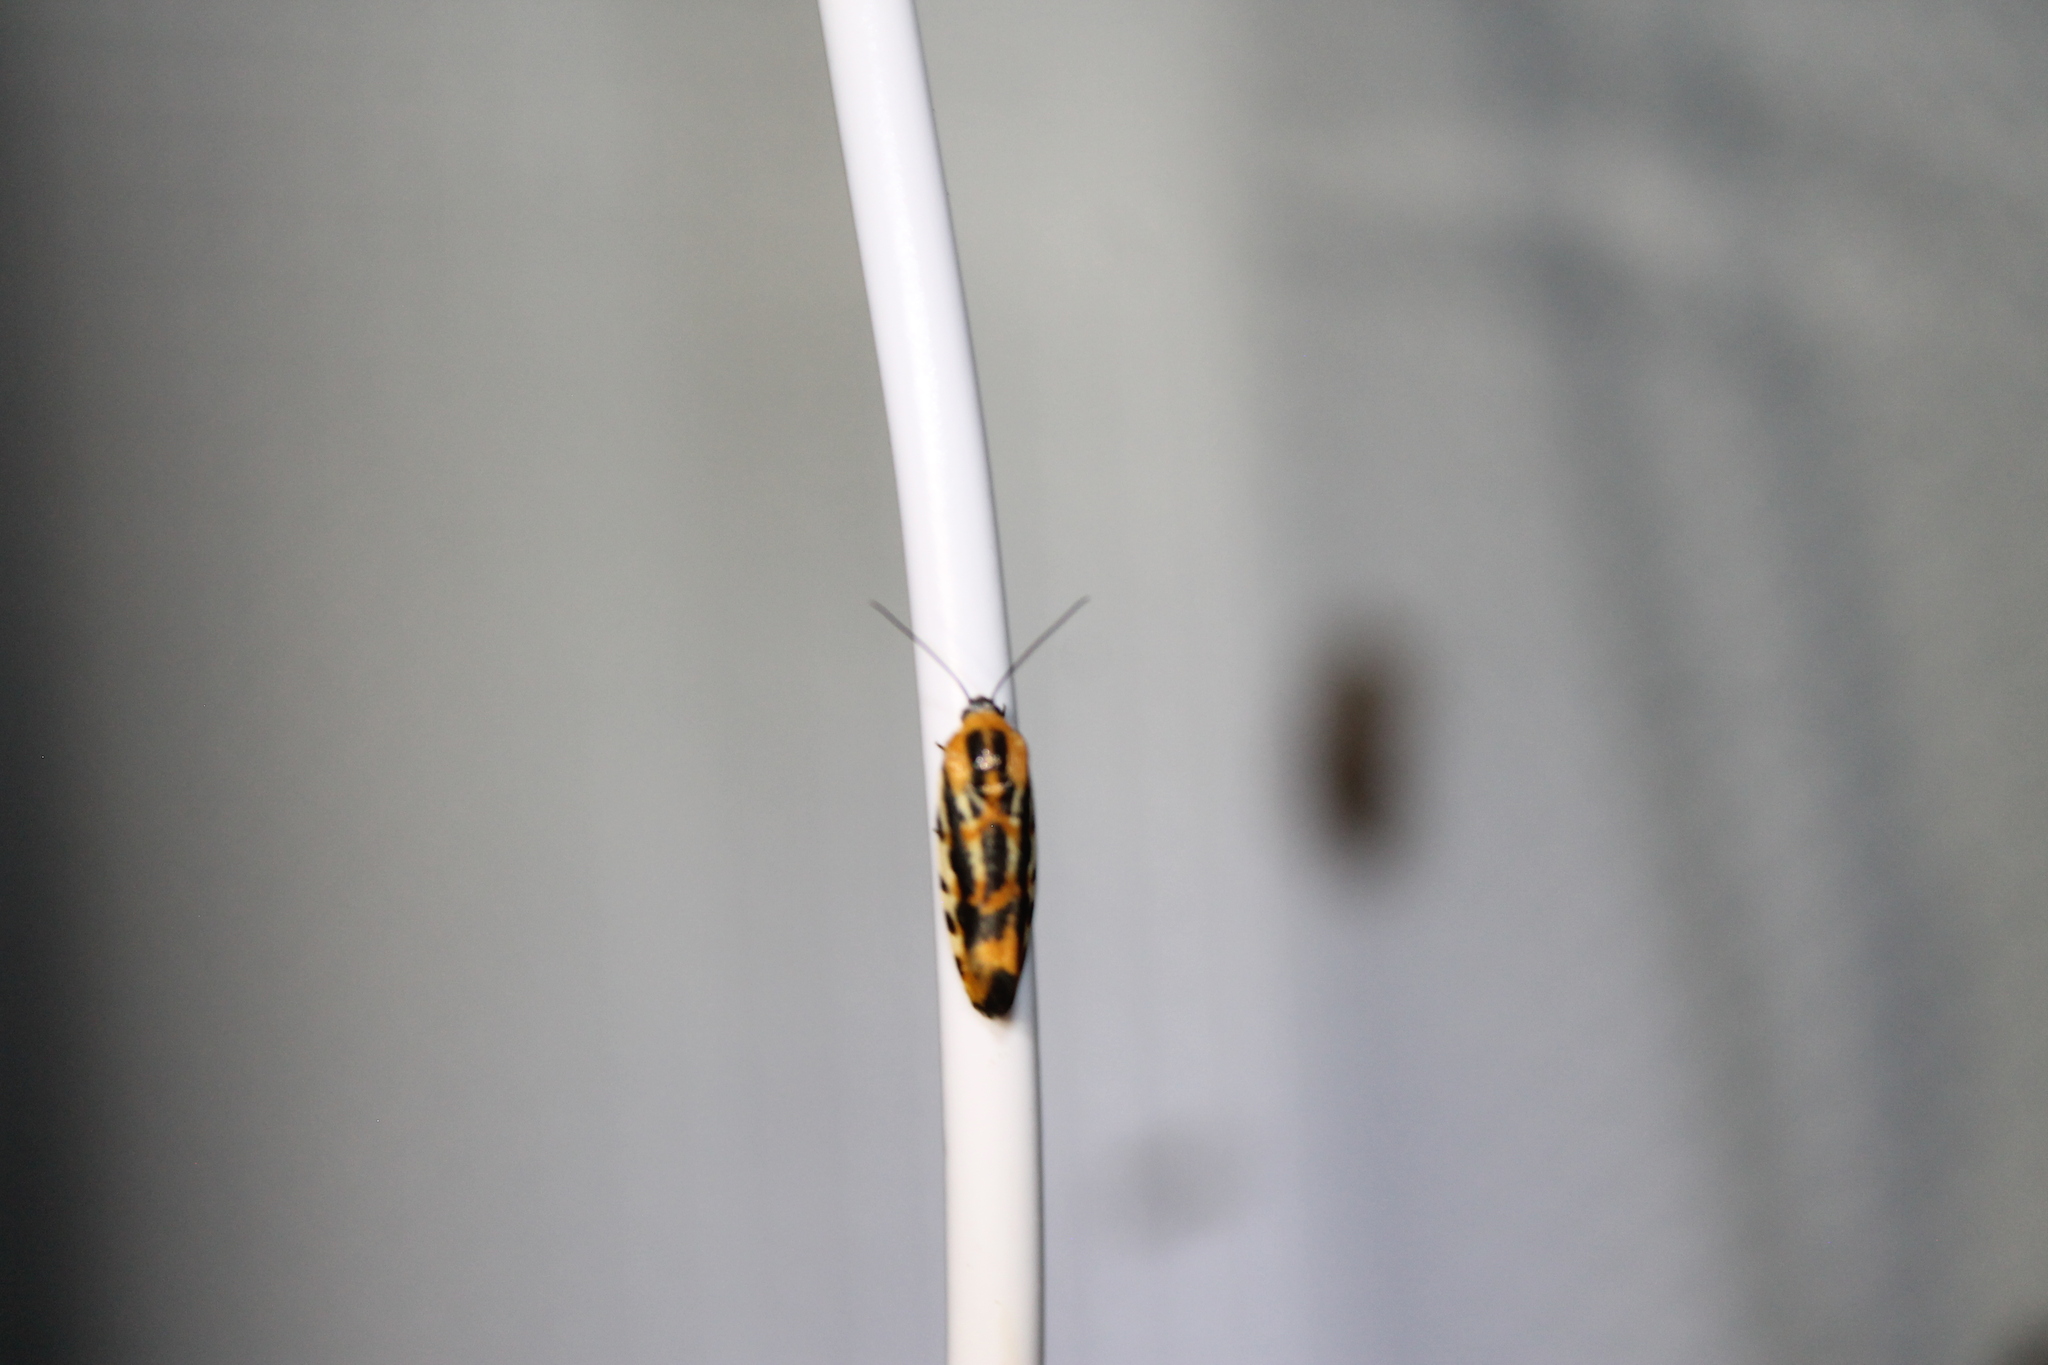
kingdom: Animalia
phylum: Arthropoda
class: Insecta
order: Lepidoptera
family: Noctuidae
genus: Acontia
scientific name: Acontia leo
